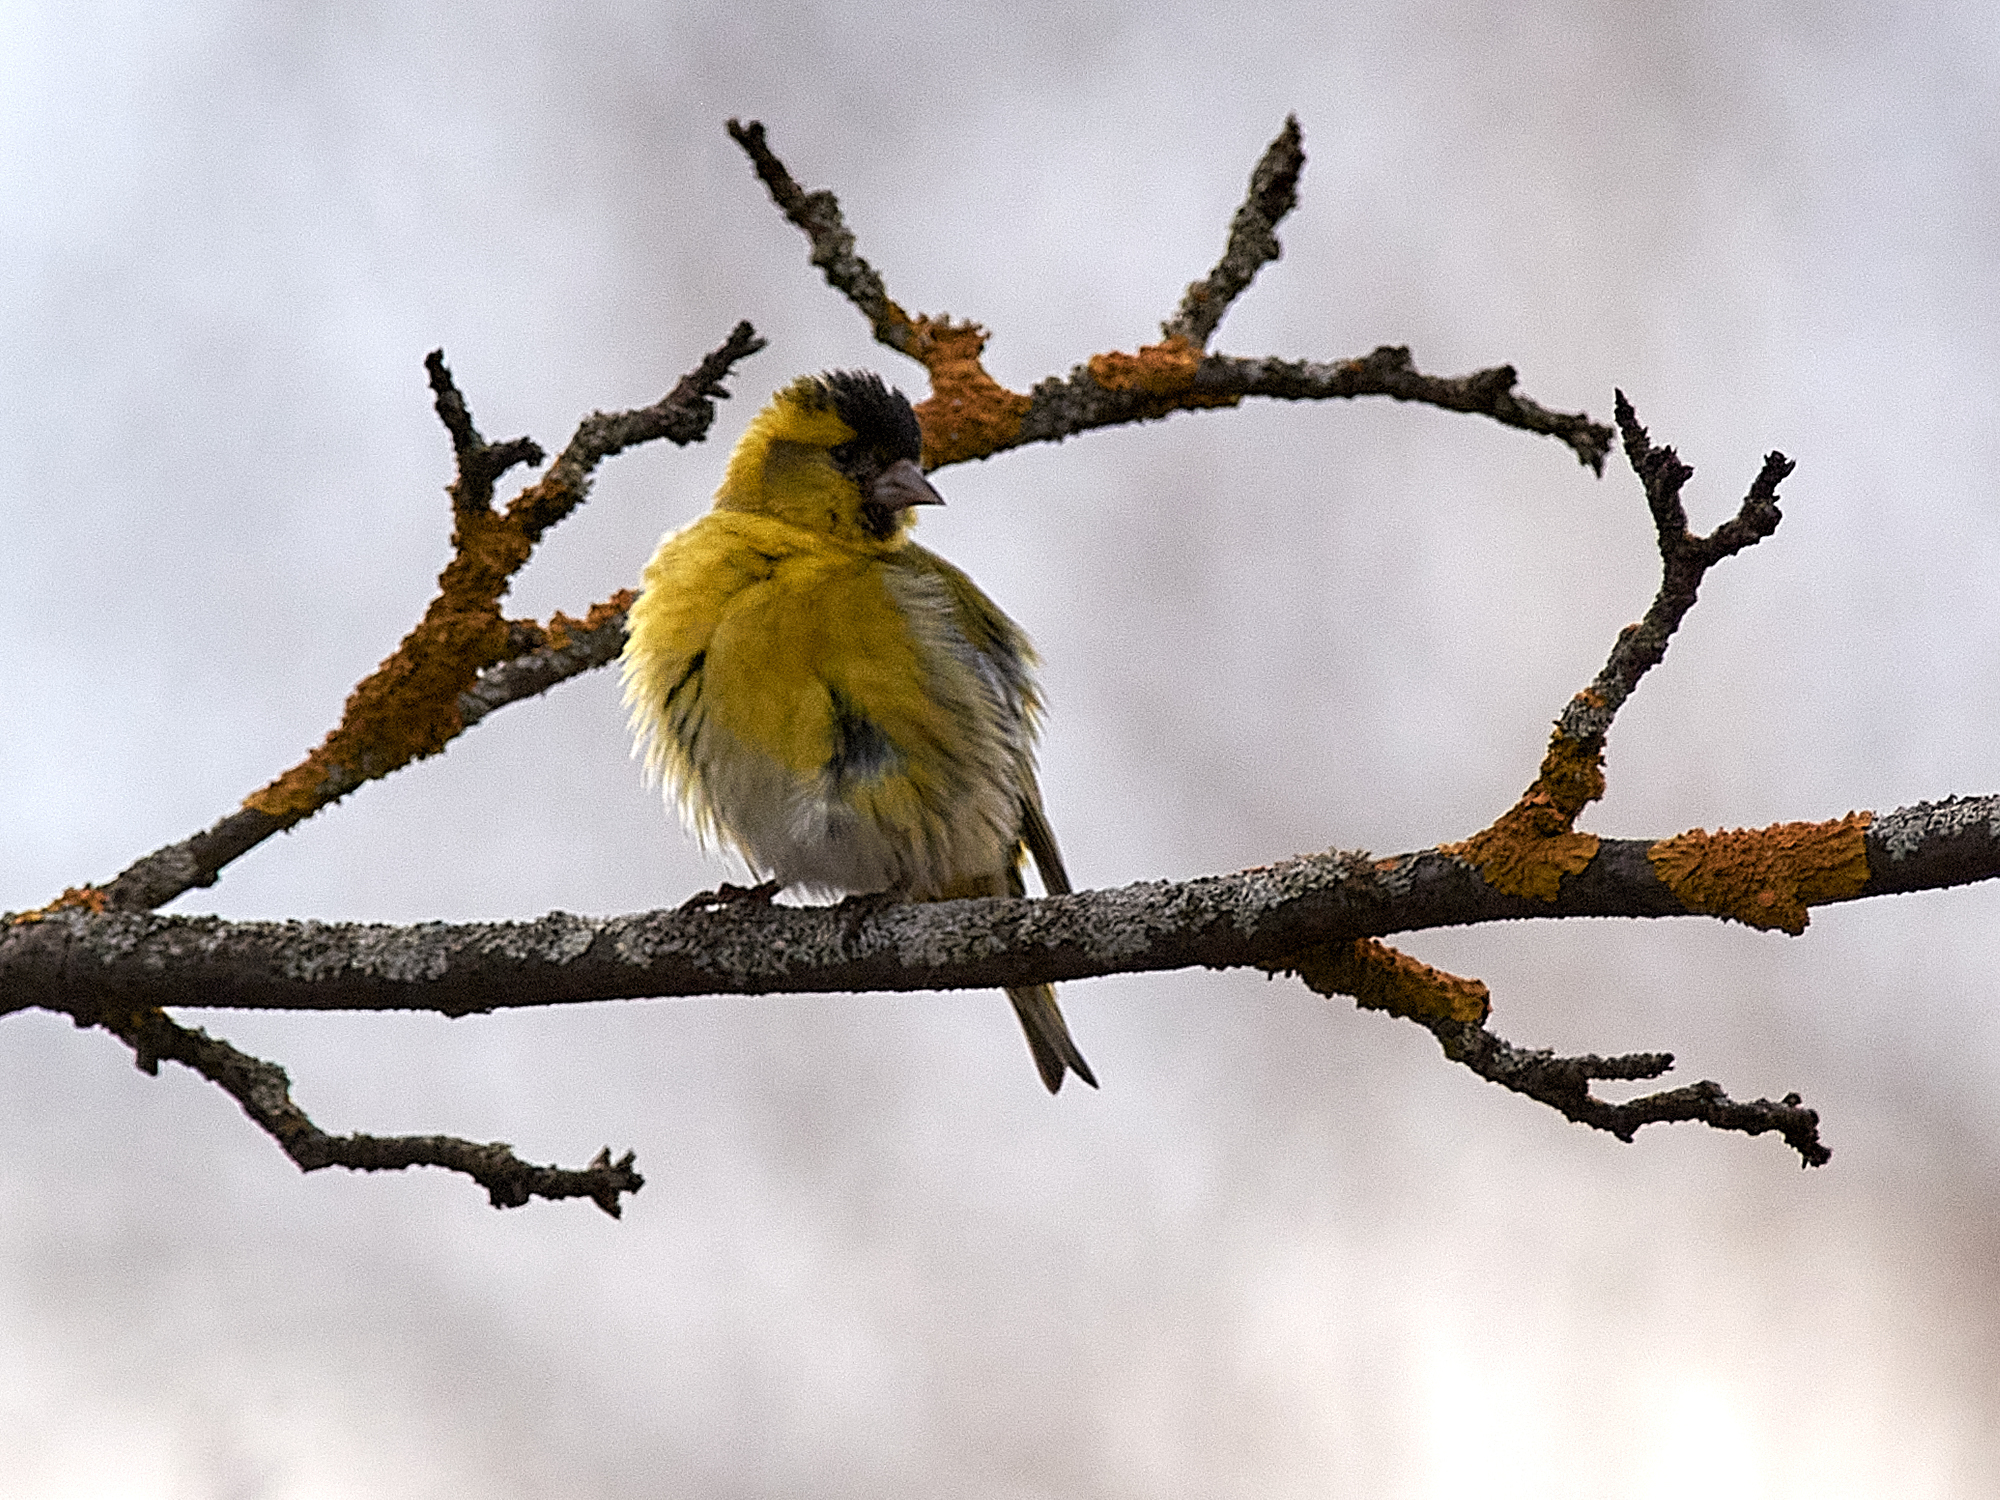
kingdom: Animalia
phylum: Chordata
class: Aves
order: Passeriformes
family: Fringillidae
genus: Spinus
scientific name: Spinus spinus
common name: Eurasian siskin
